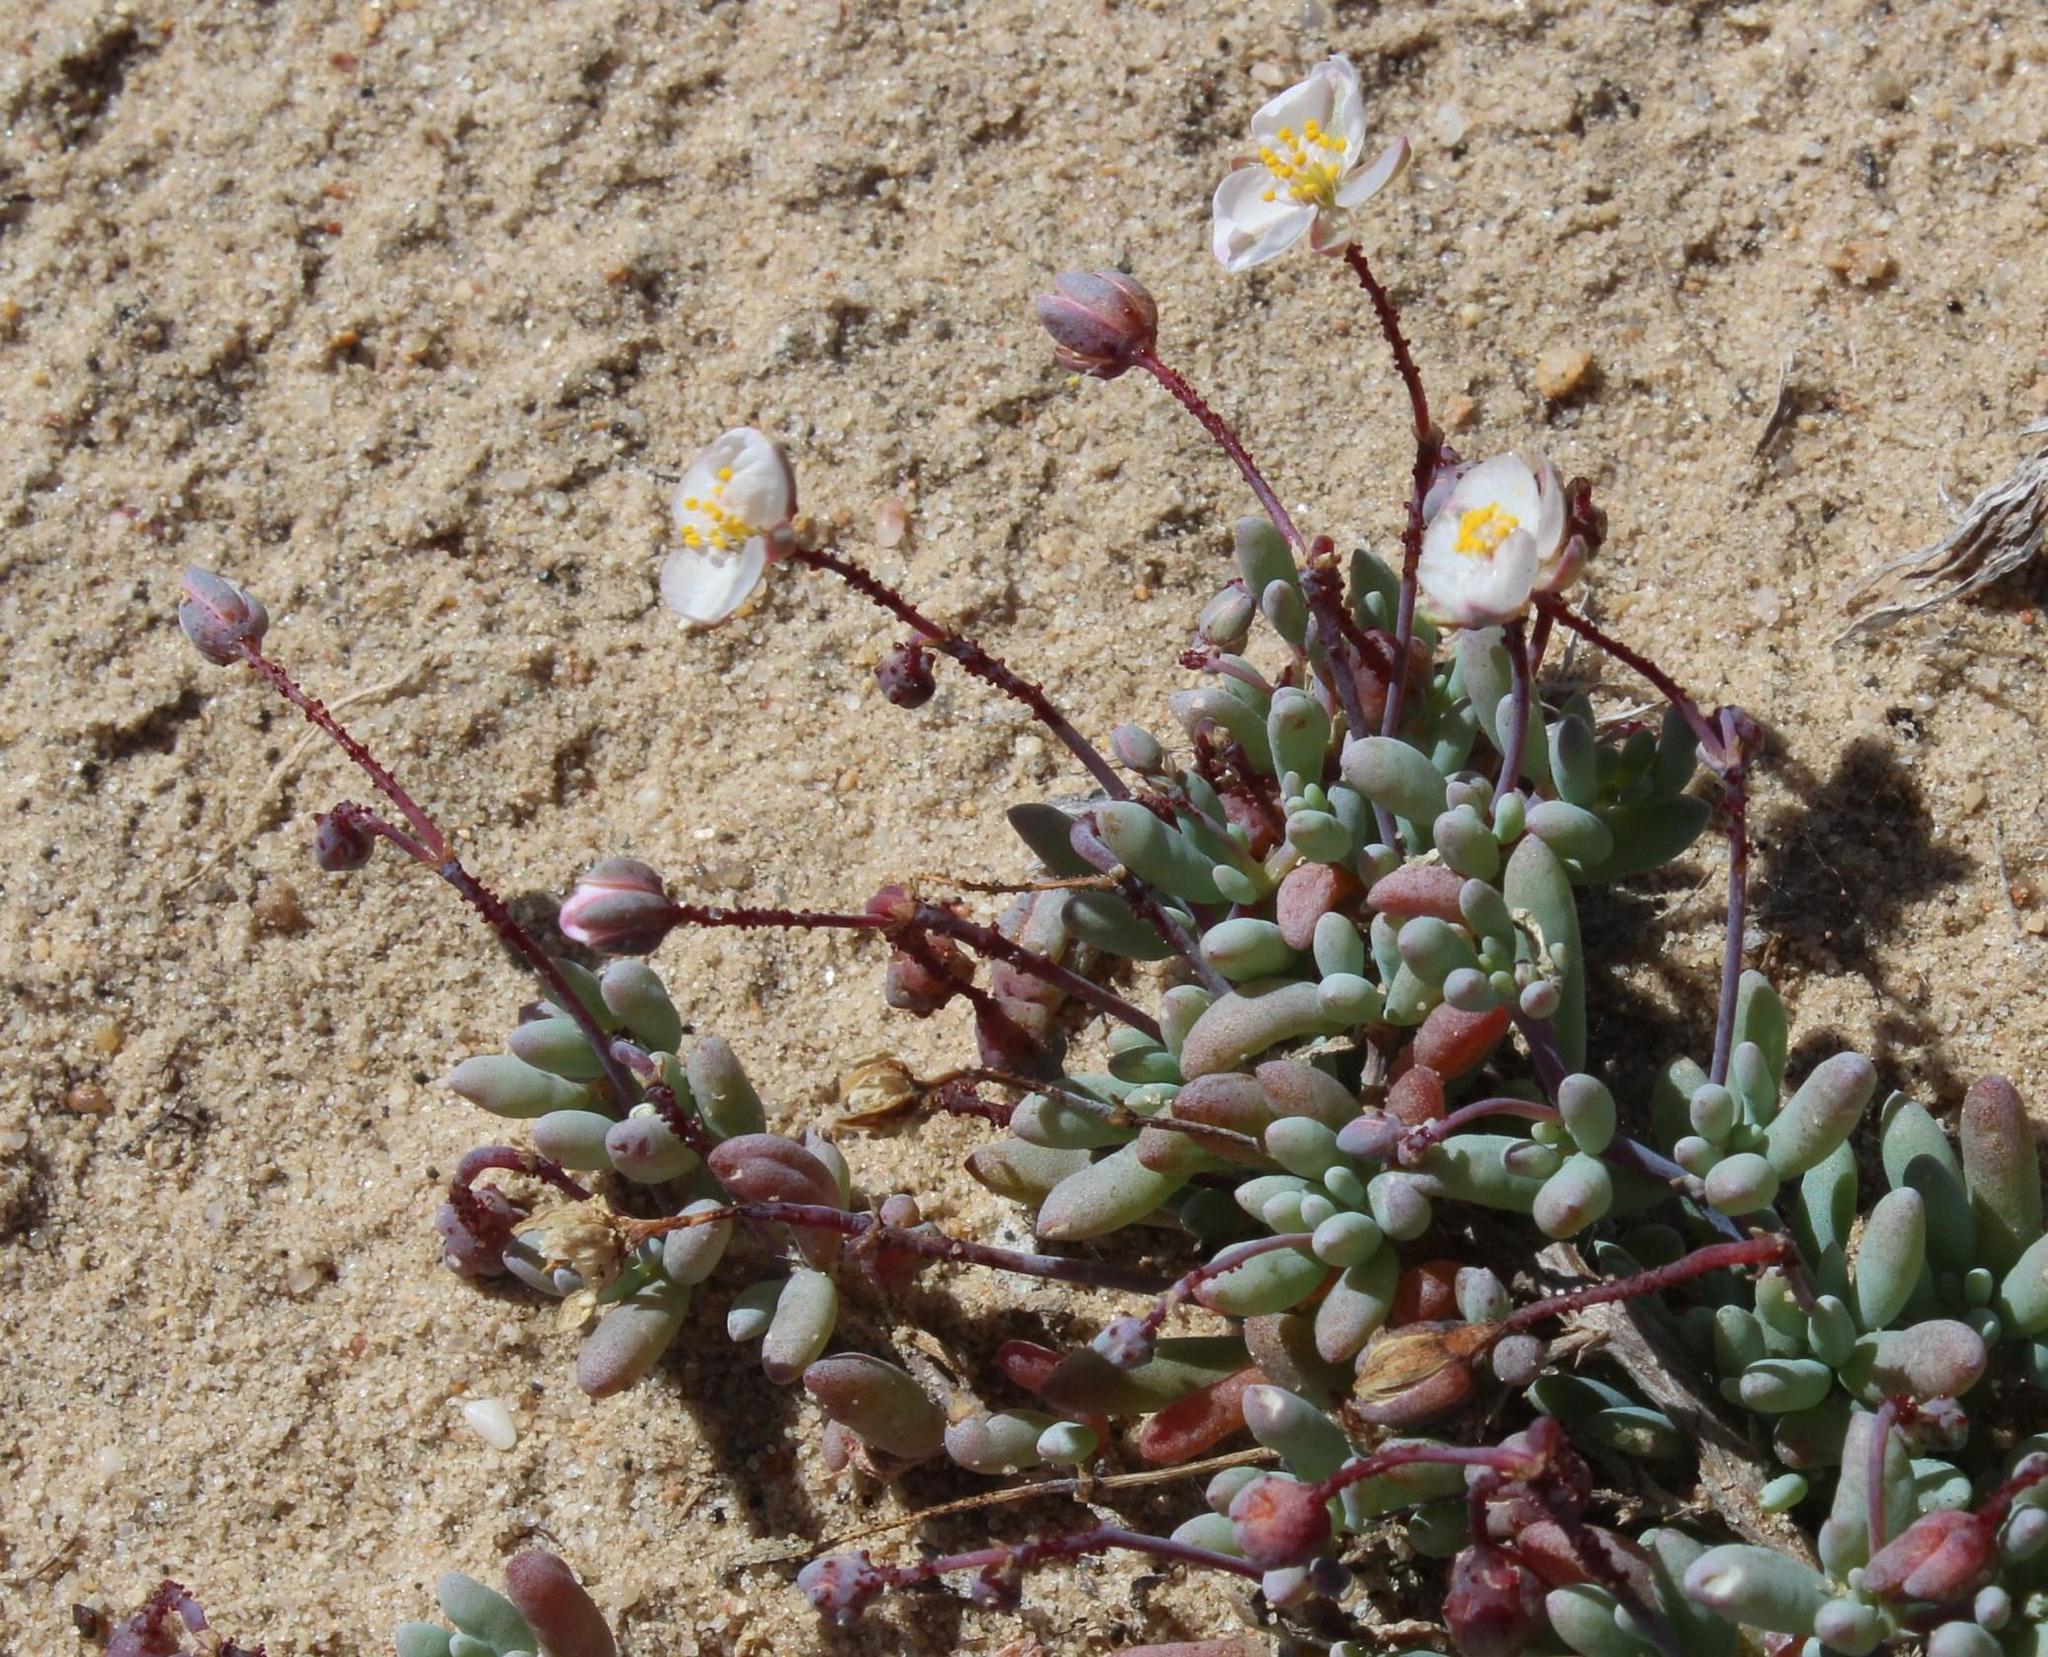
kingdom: Plantae
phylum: Tracheophyta
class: Magnoliopsida
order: Caryophyllales
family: Kewaceae
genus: Kewa
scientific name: Kewa salsoloides
